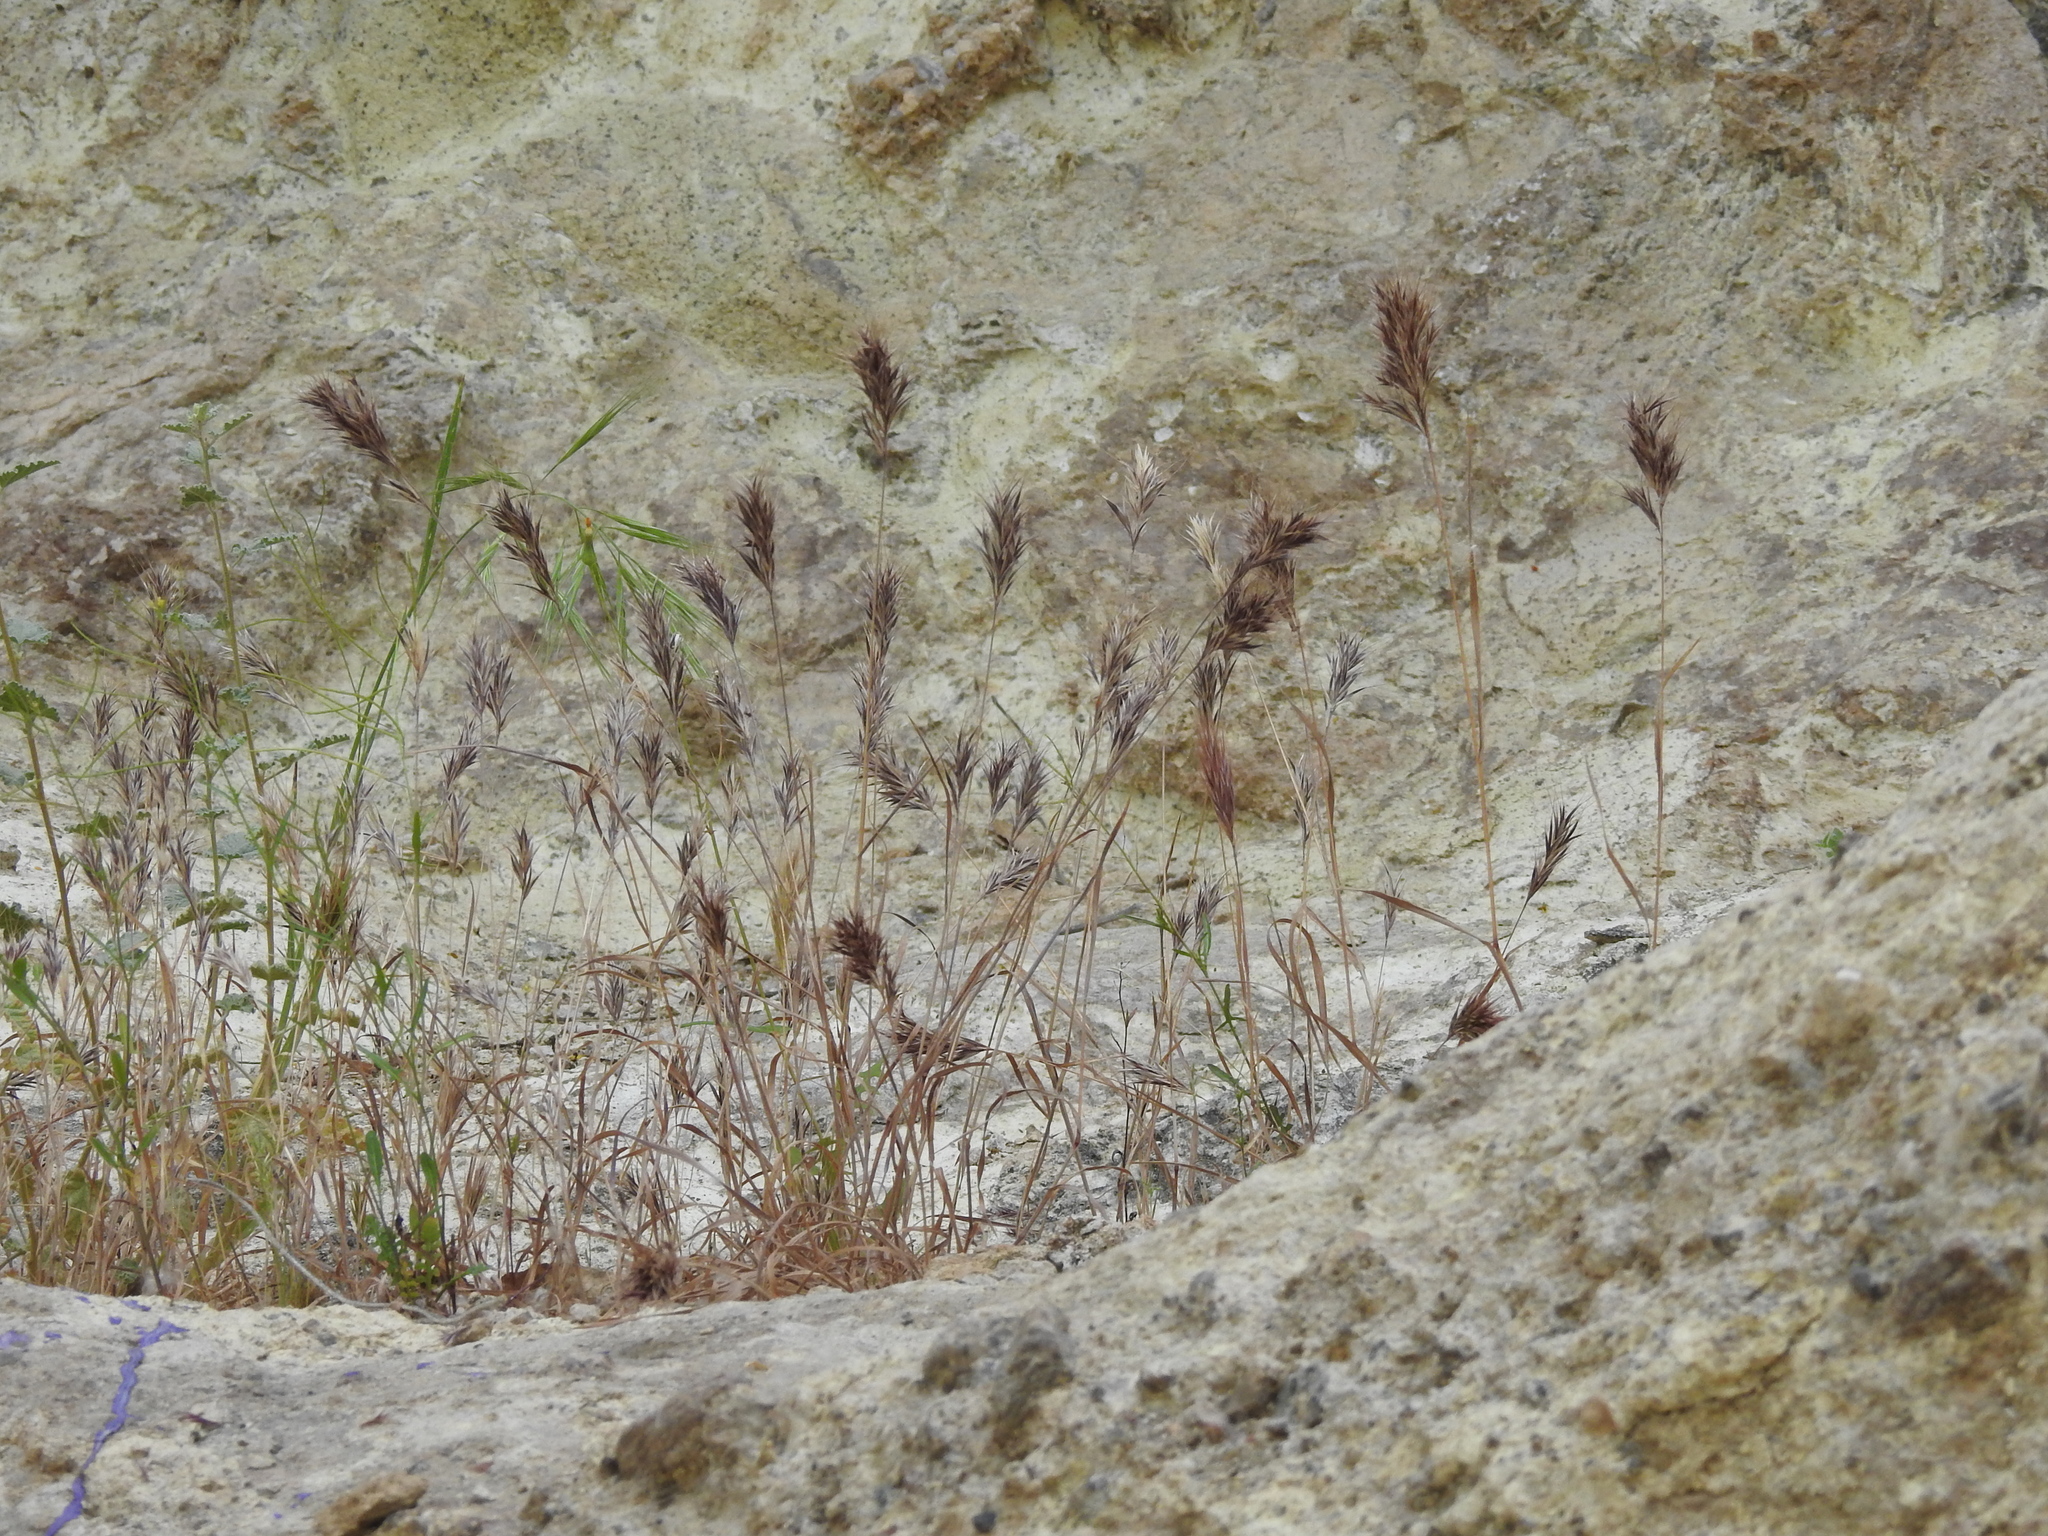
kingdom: Plantae
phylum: Tracheophyta
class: Liliopsida
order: Poales
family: Poaceae
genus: Bromus
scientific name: Bromus rubens
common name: Red brome
